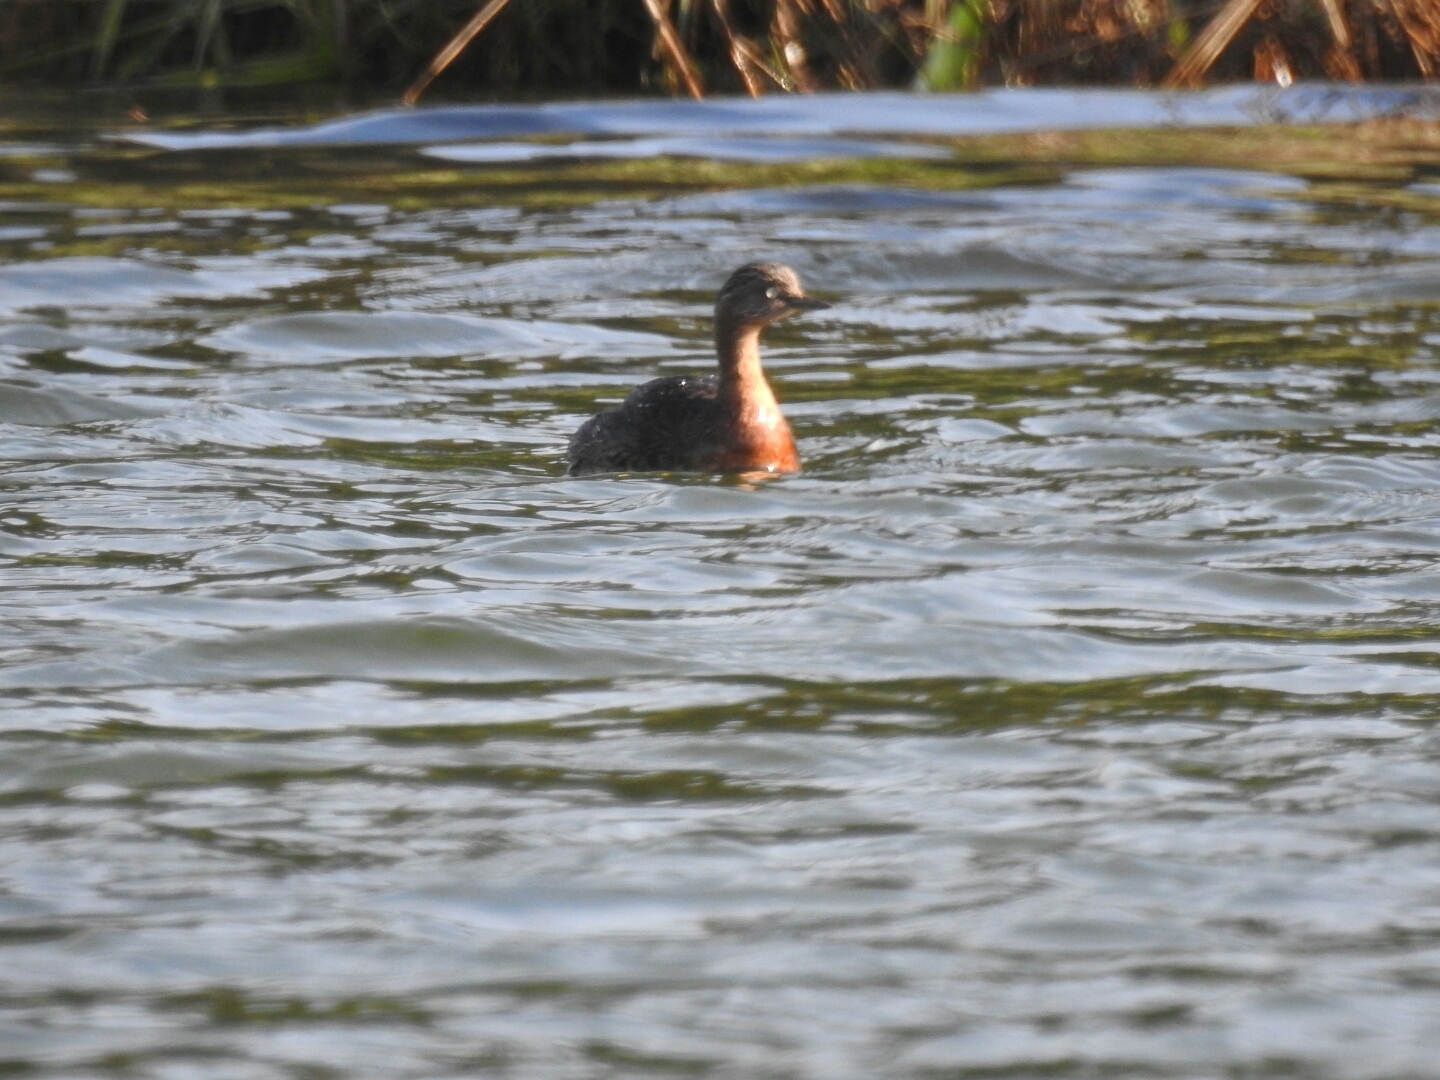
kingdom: Animalia
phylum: Chordata
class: Aves
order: Podicipediformes
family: Podicipedidae
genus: Poliocephalus
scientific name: Poliocephalus rufopectus
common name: New zealand grebe
